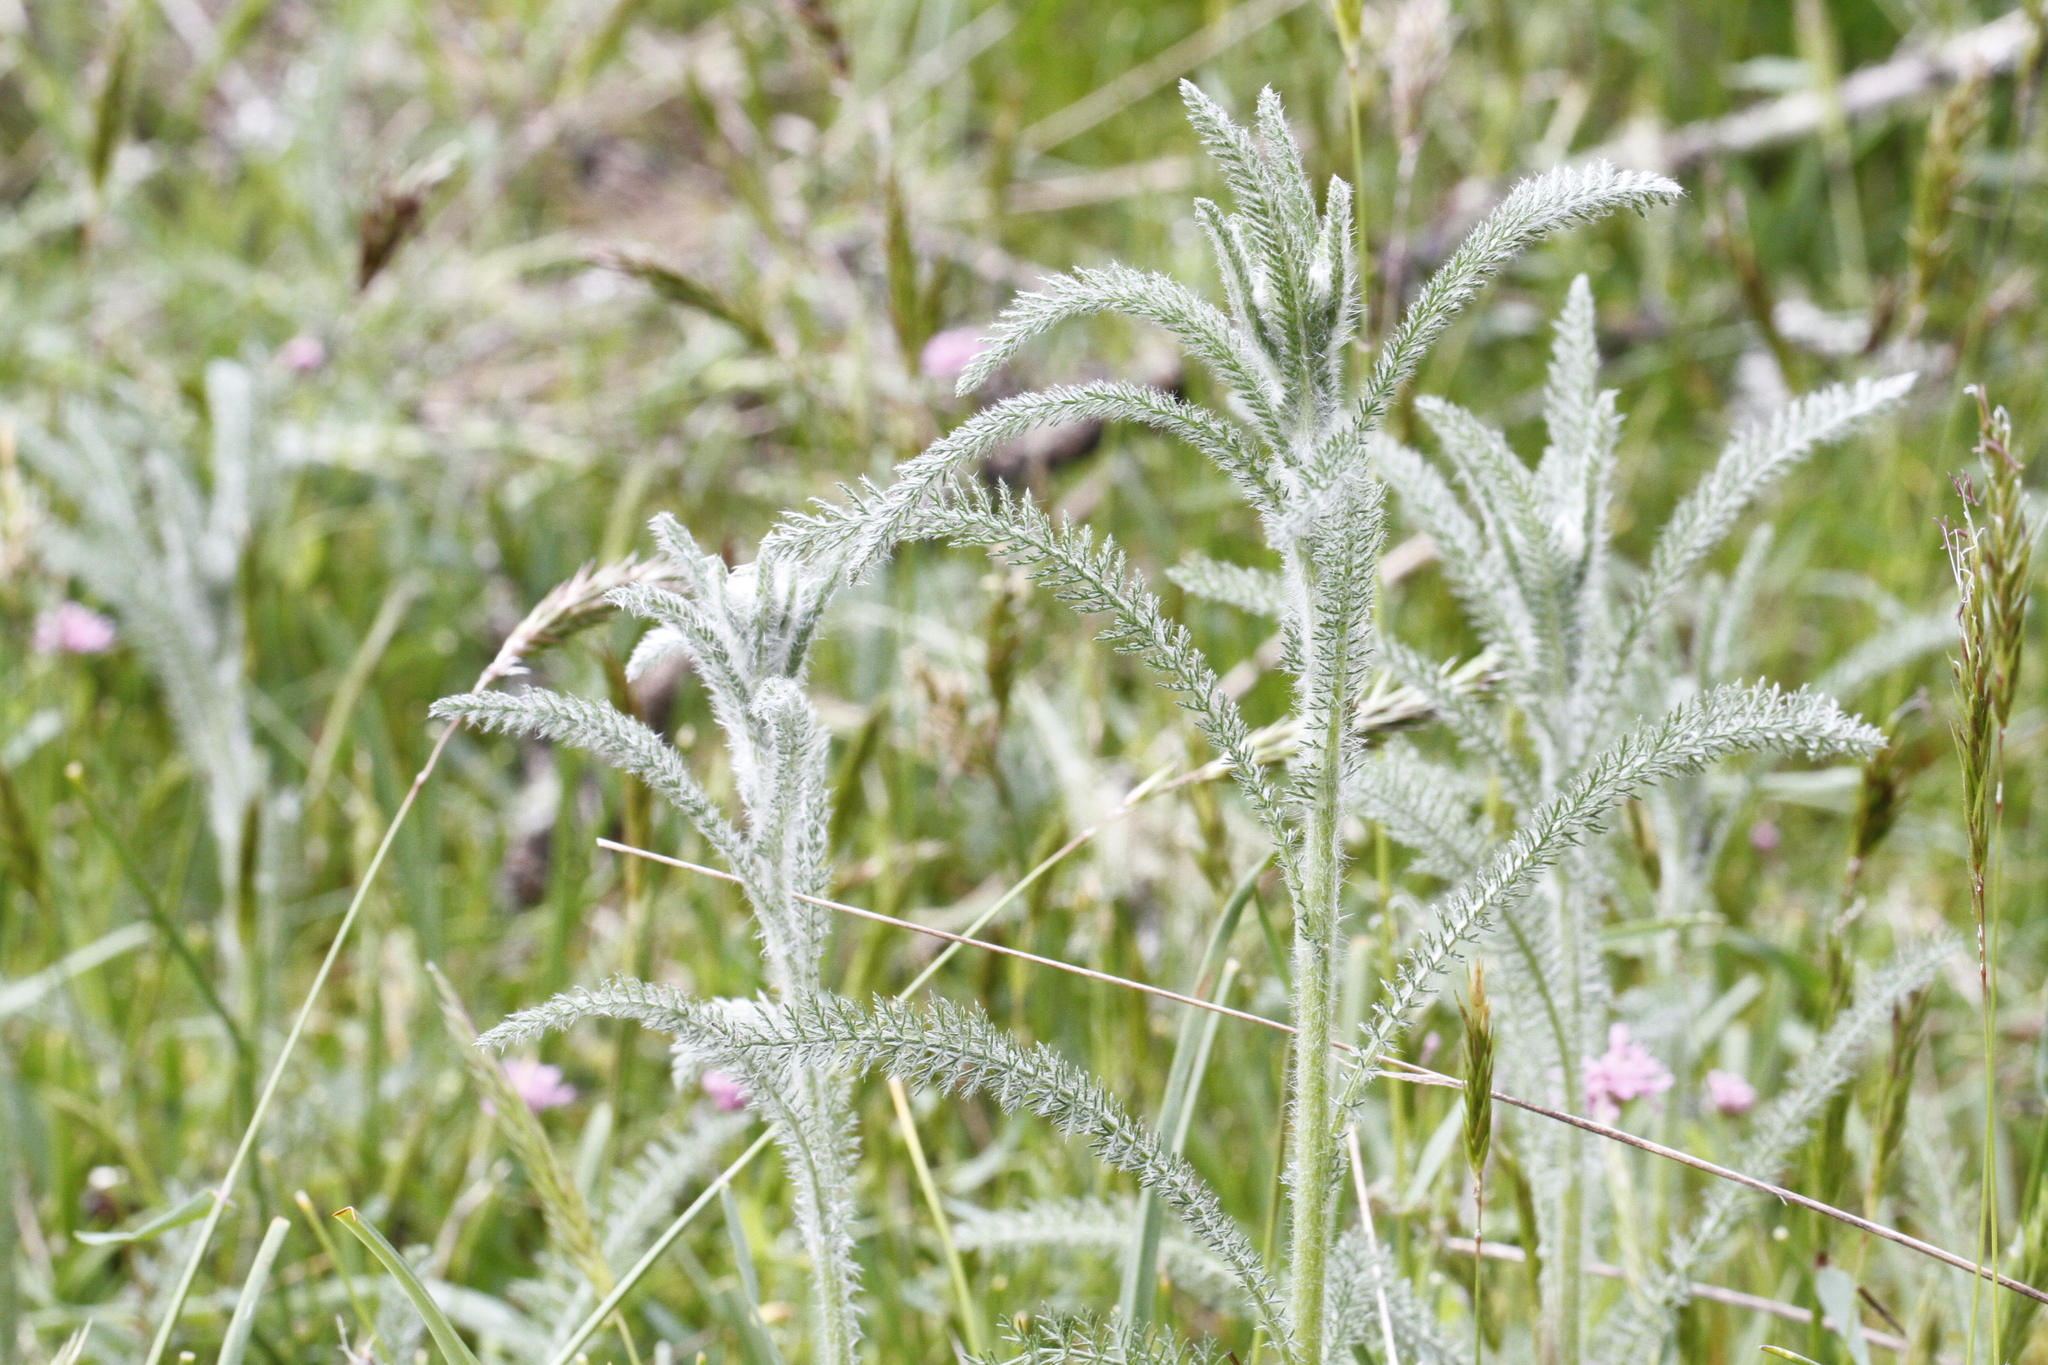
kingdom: Plantae
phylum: Tracheophyta
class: Magnoliopsida
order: Asterales
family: Asteraceae
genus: Achillea
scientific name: Achillea millefolium
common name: Yarrow
